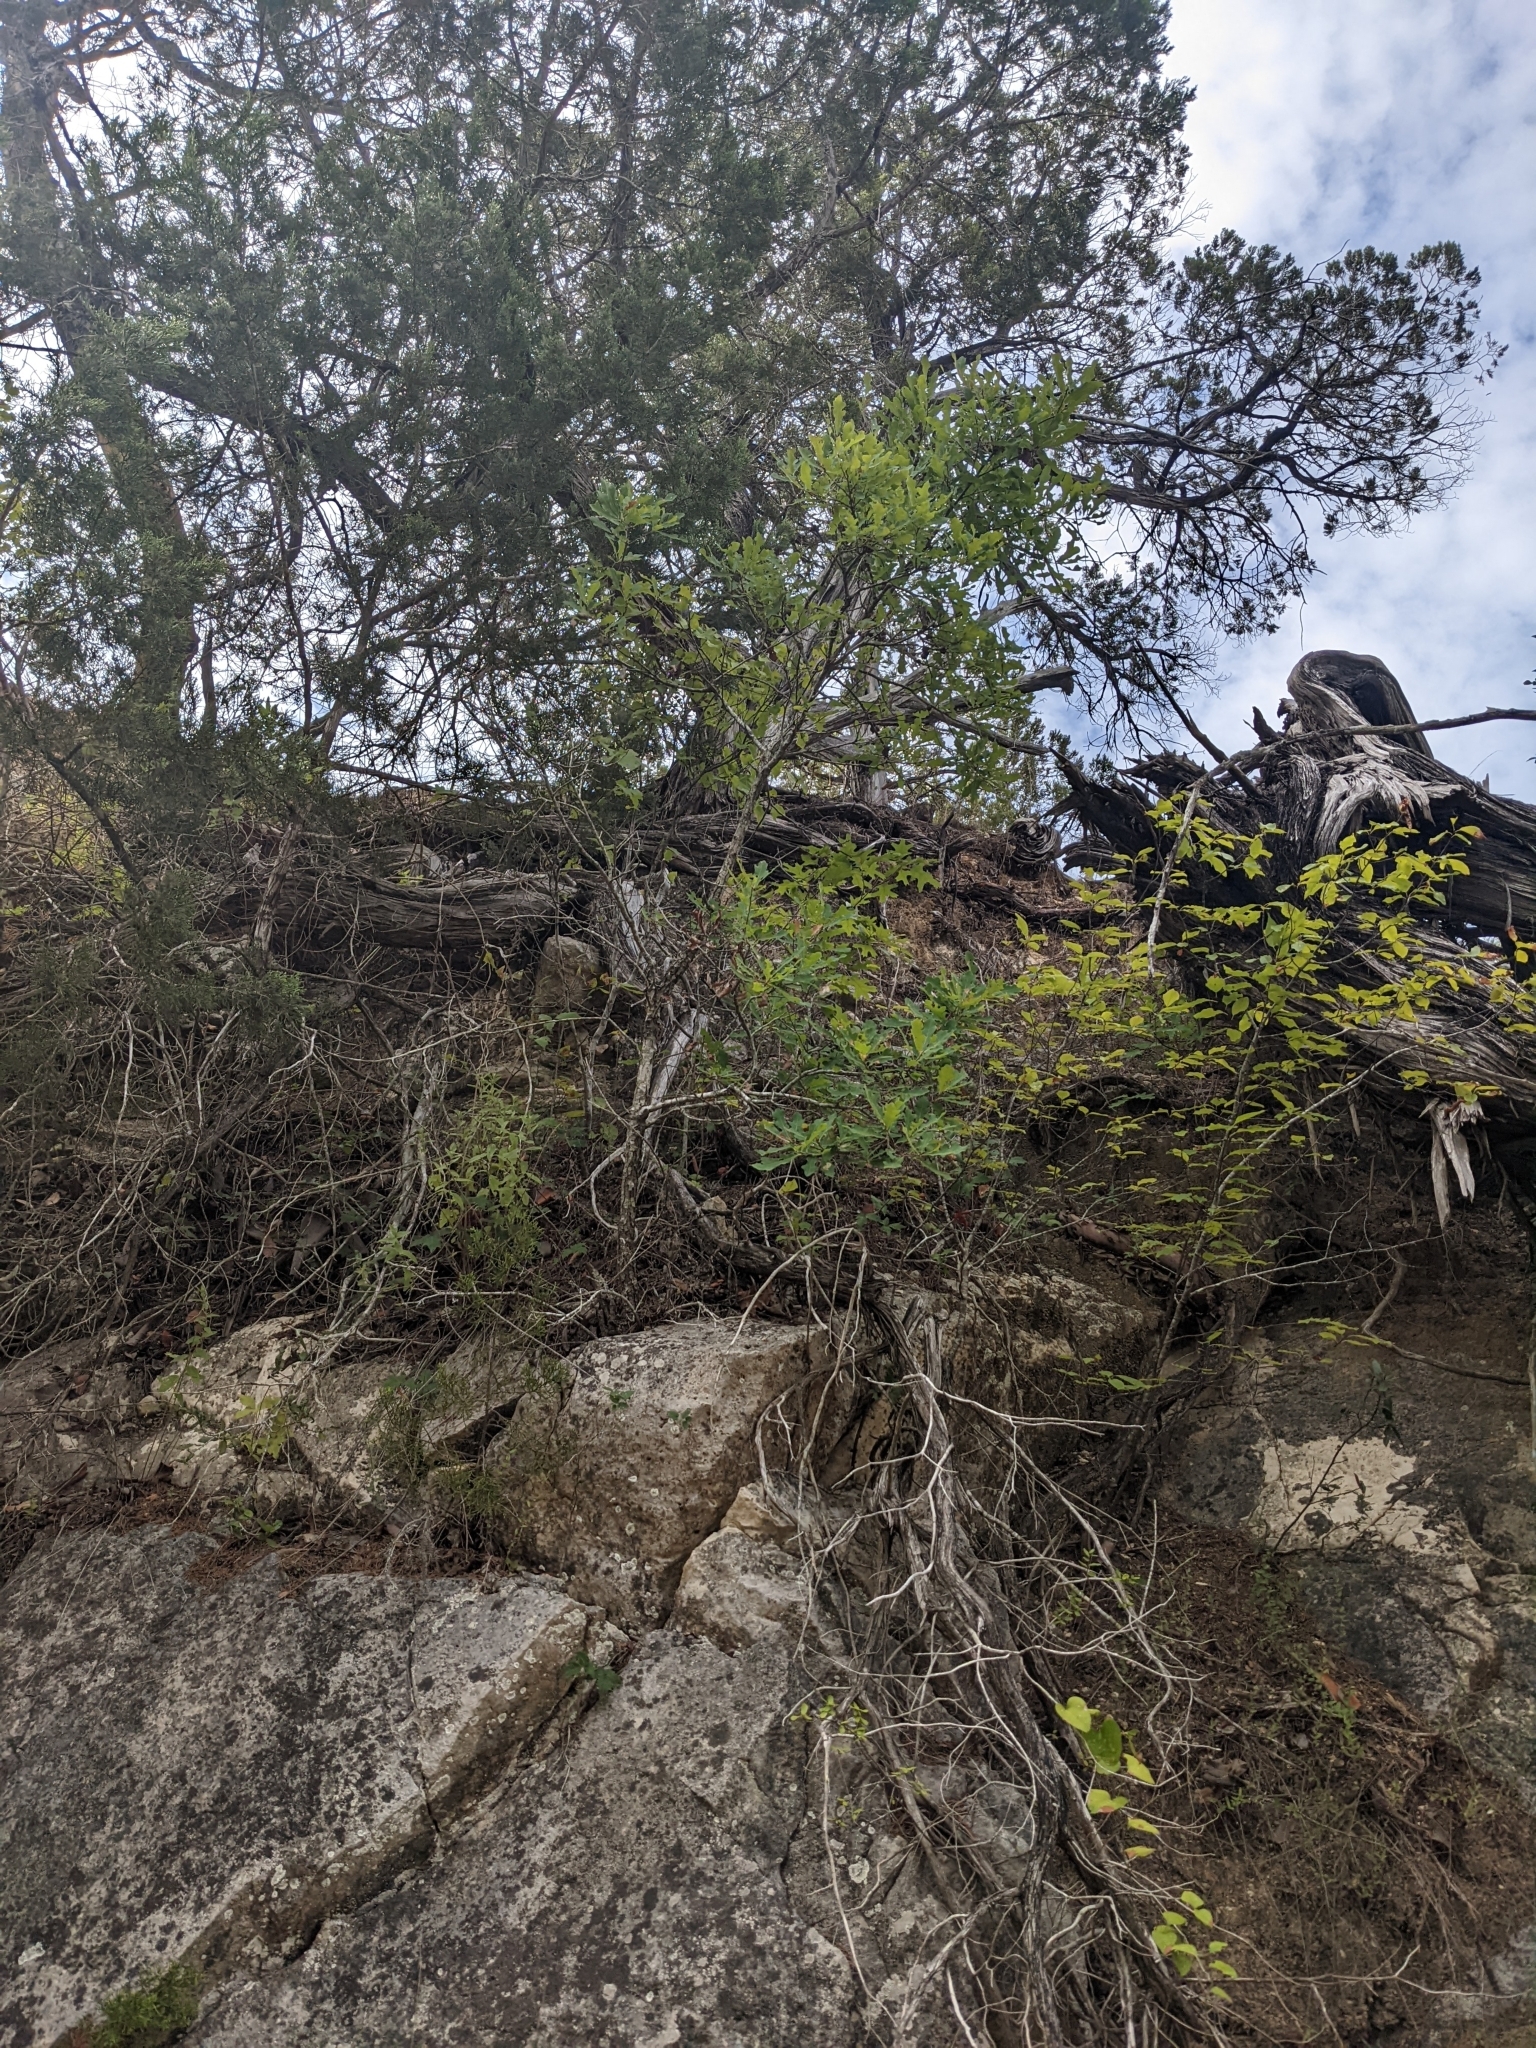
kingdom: Plantae
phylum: Tracheophyta
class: Magnoliopsida
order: Fagales
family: Fagaceae
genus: Quercus
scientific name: Quercus laceyi
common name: Lacey oak
